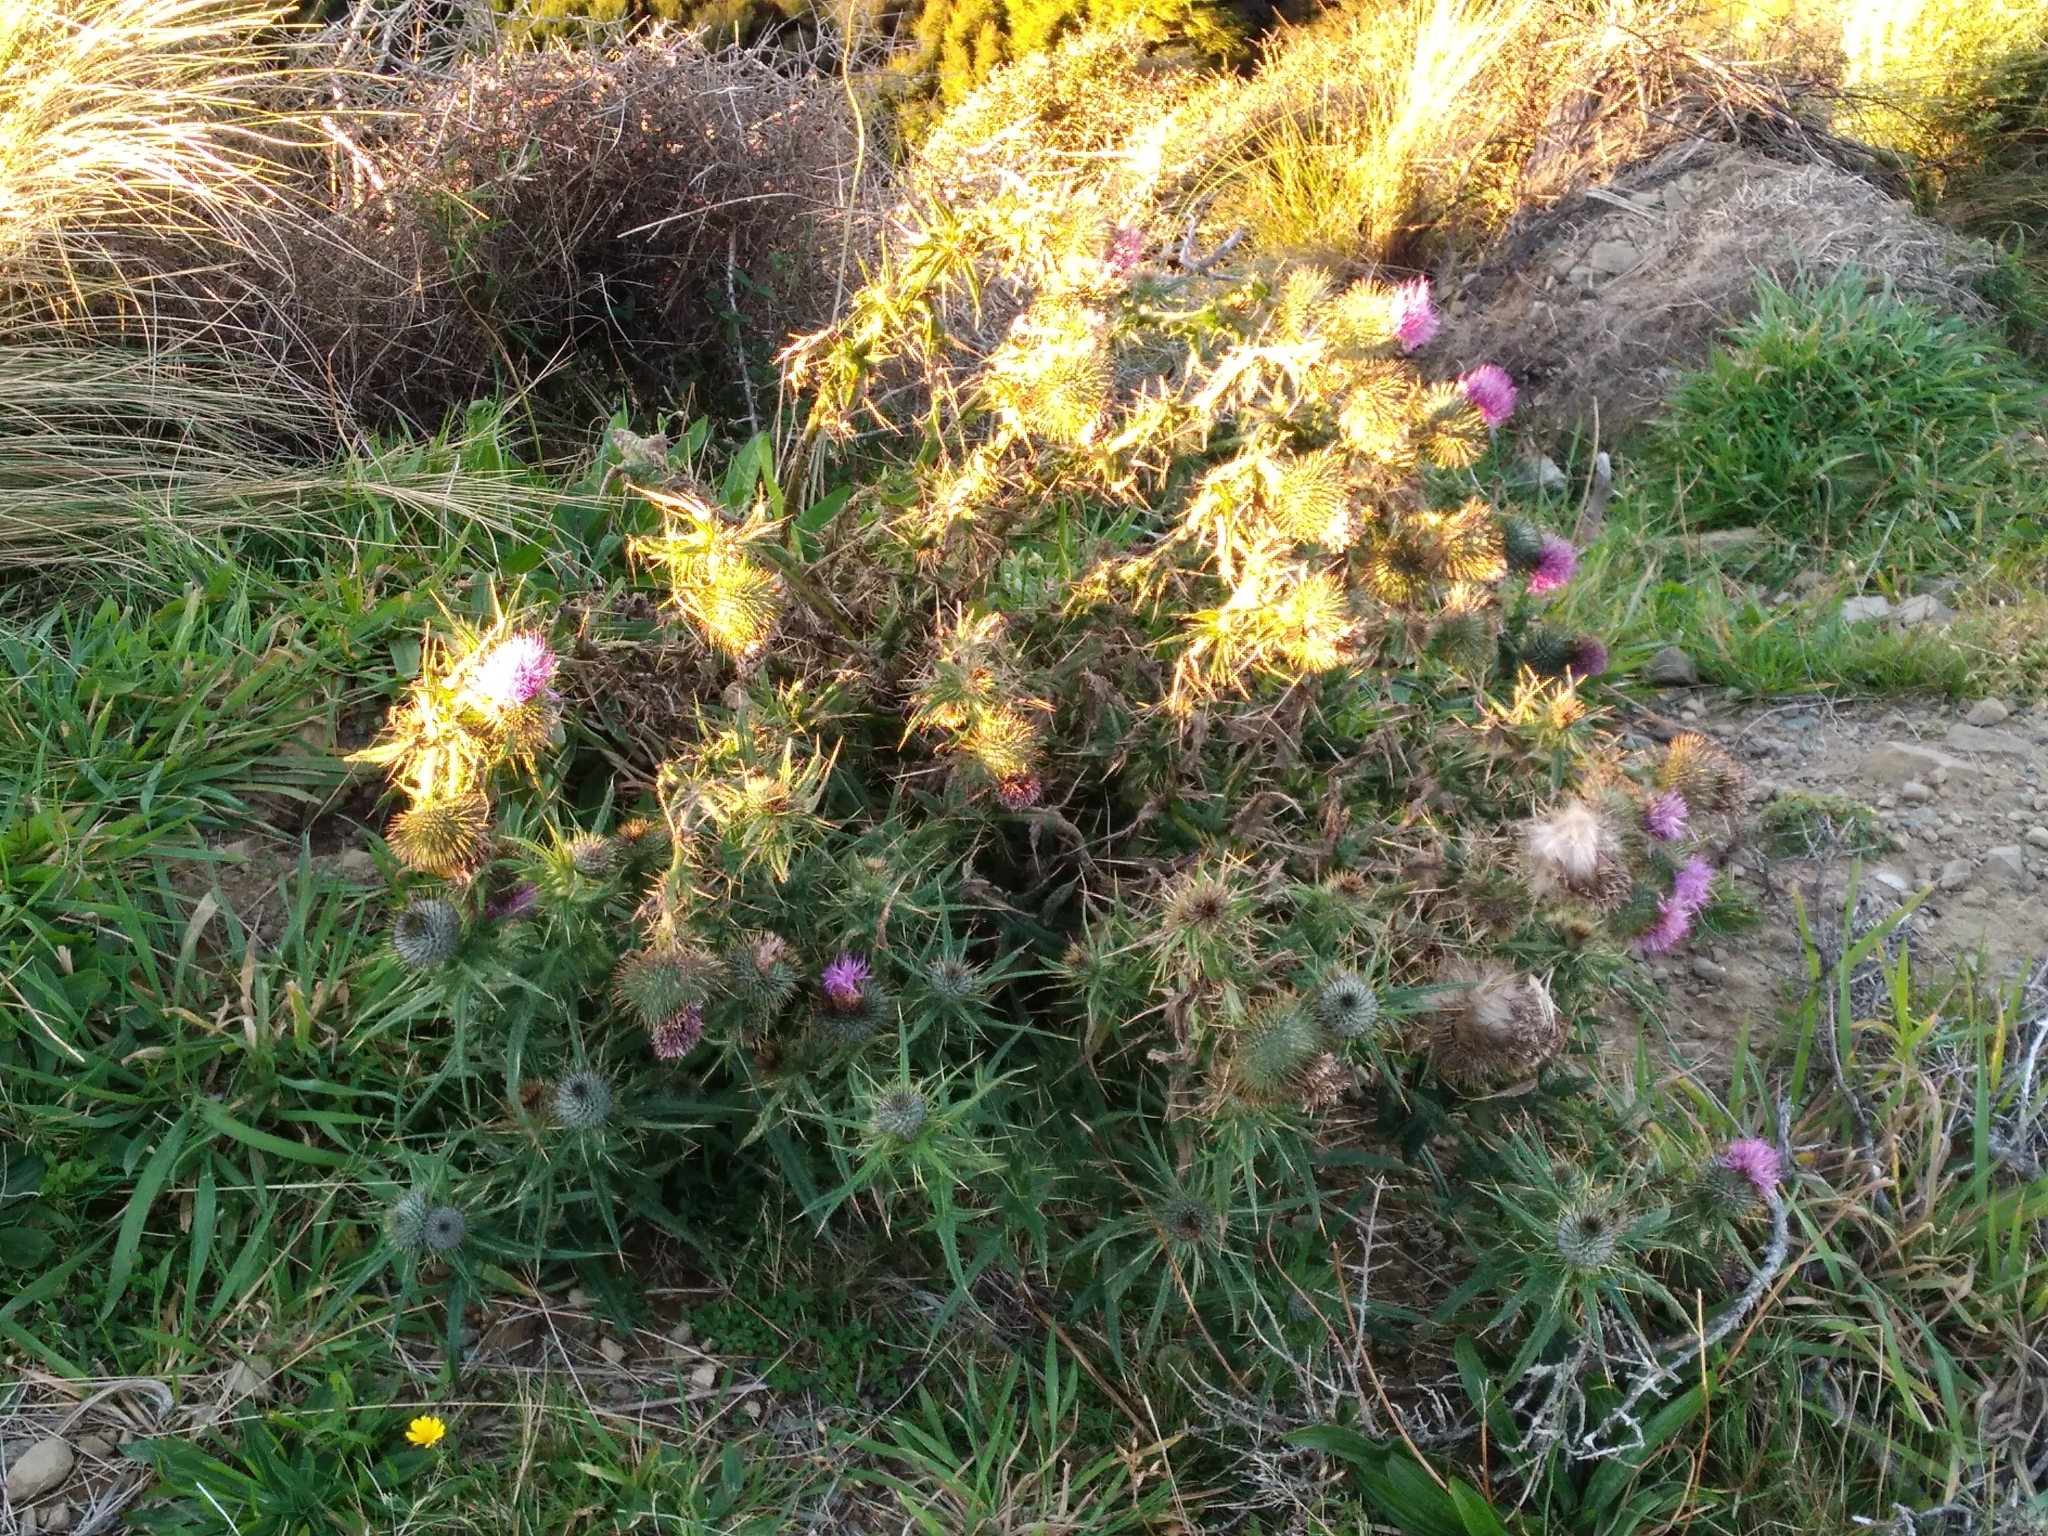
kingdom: Plantae
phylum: Tracheophyta
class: Magnoliopsida
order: Asterales
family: Asteraceae
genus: Cirsium
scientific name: Cirsium vulgare
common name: Bull thistle
